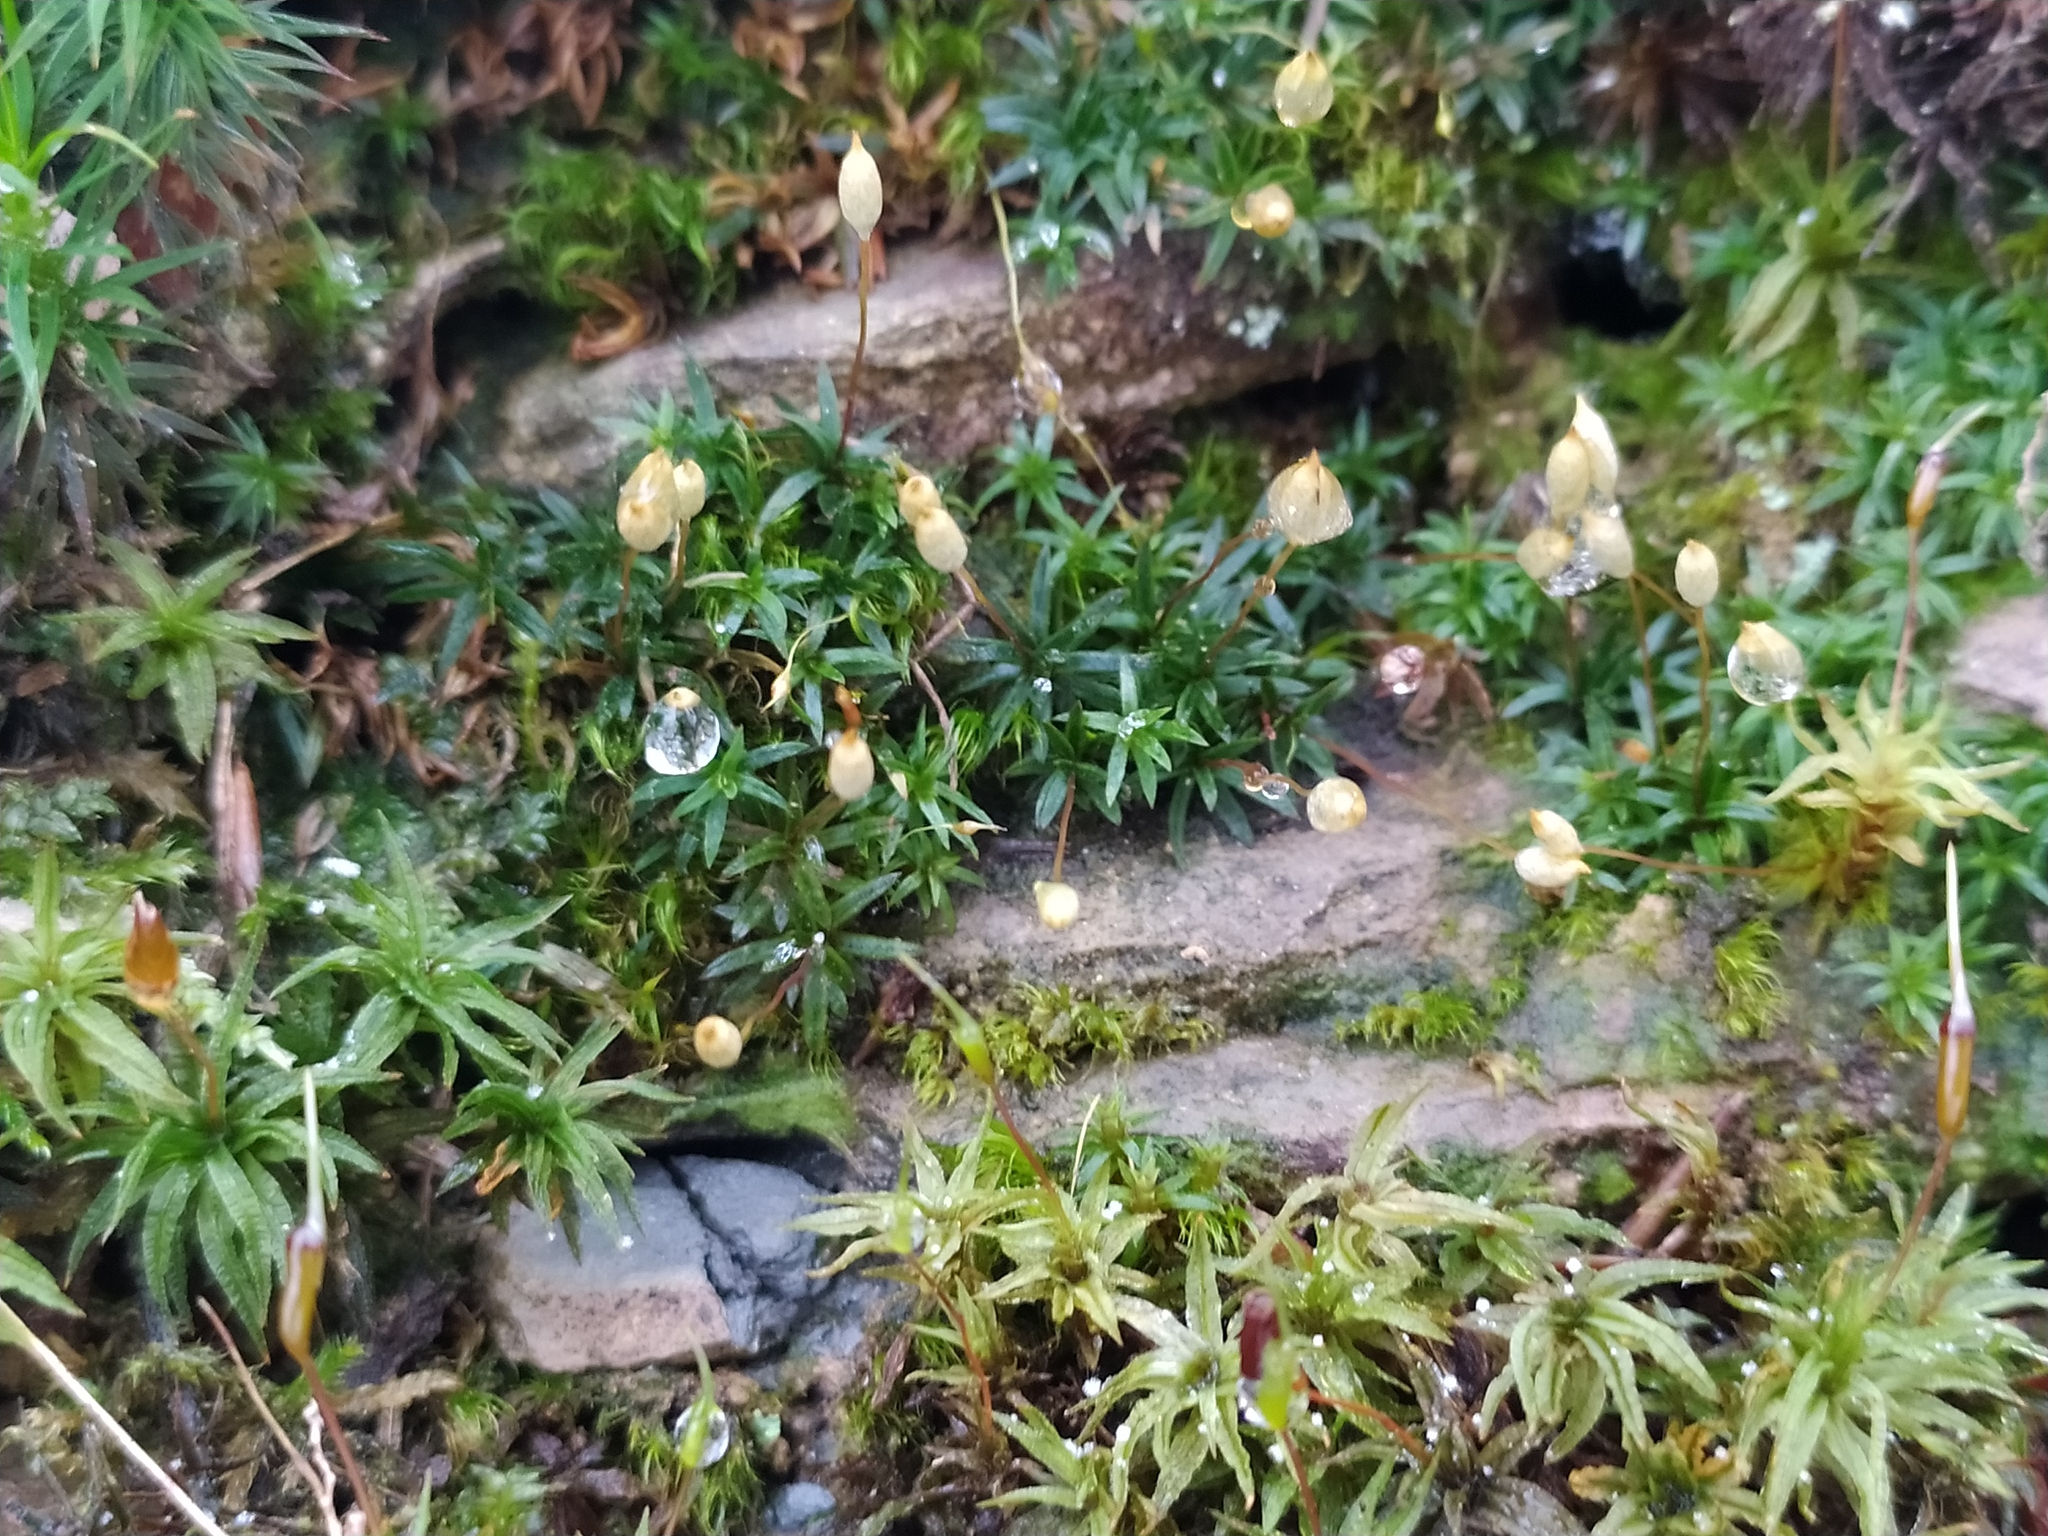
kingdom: Plantae
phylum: Bryophyta
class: Polytrichopsida
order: Polytrichales
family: Polytrichaceae
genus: Pogonatum
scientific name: Pogonatum aloides
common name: Aloe haircap
